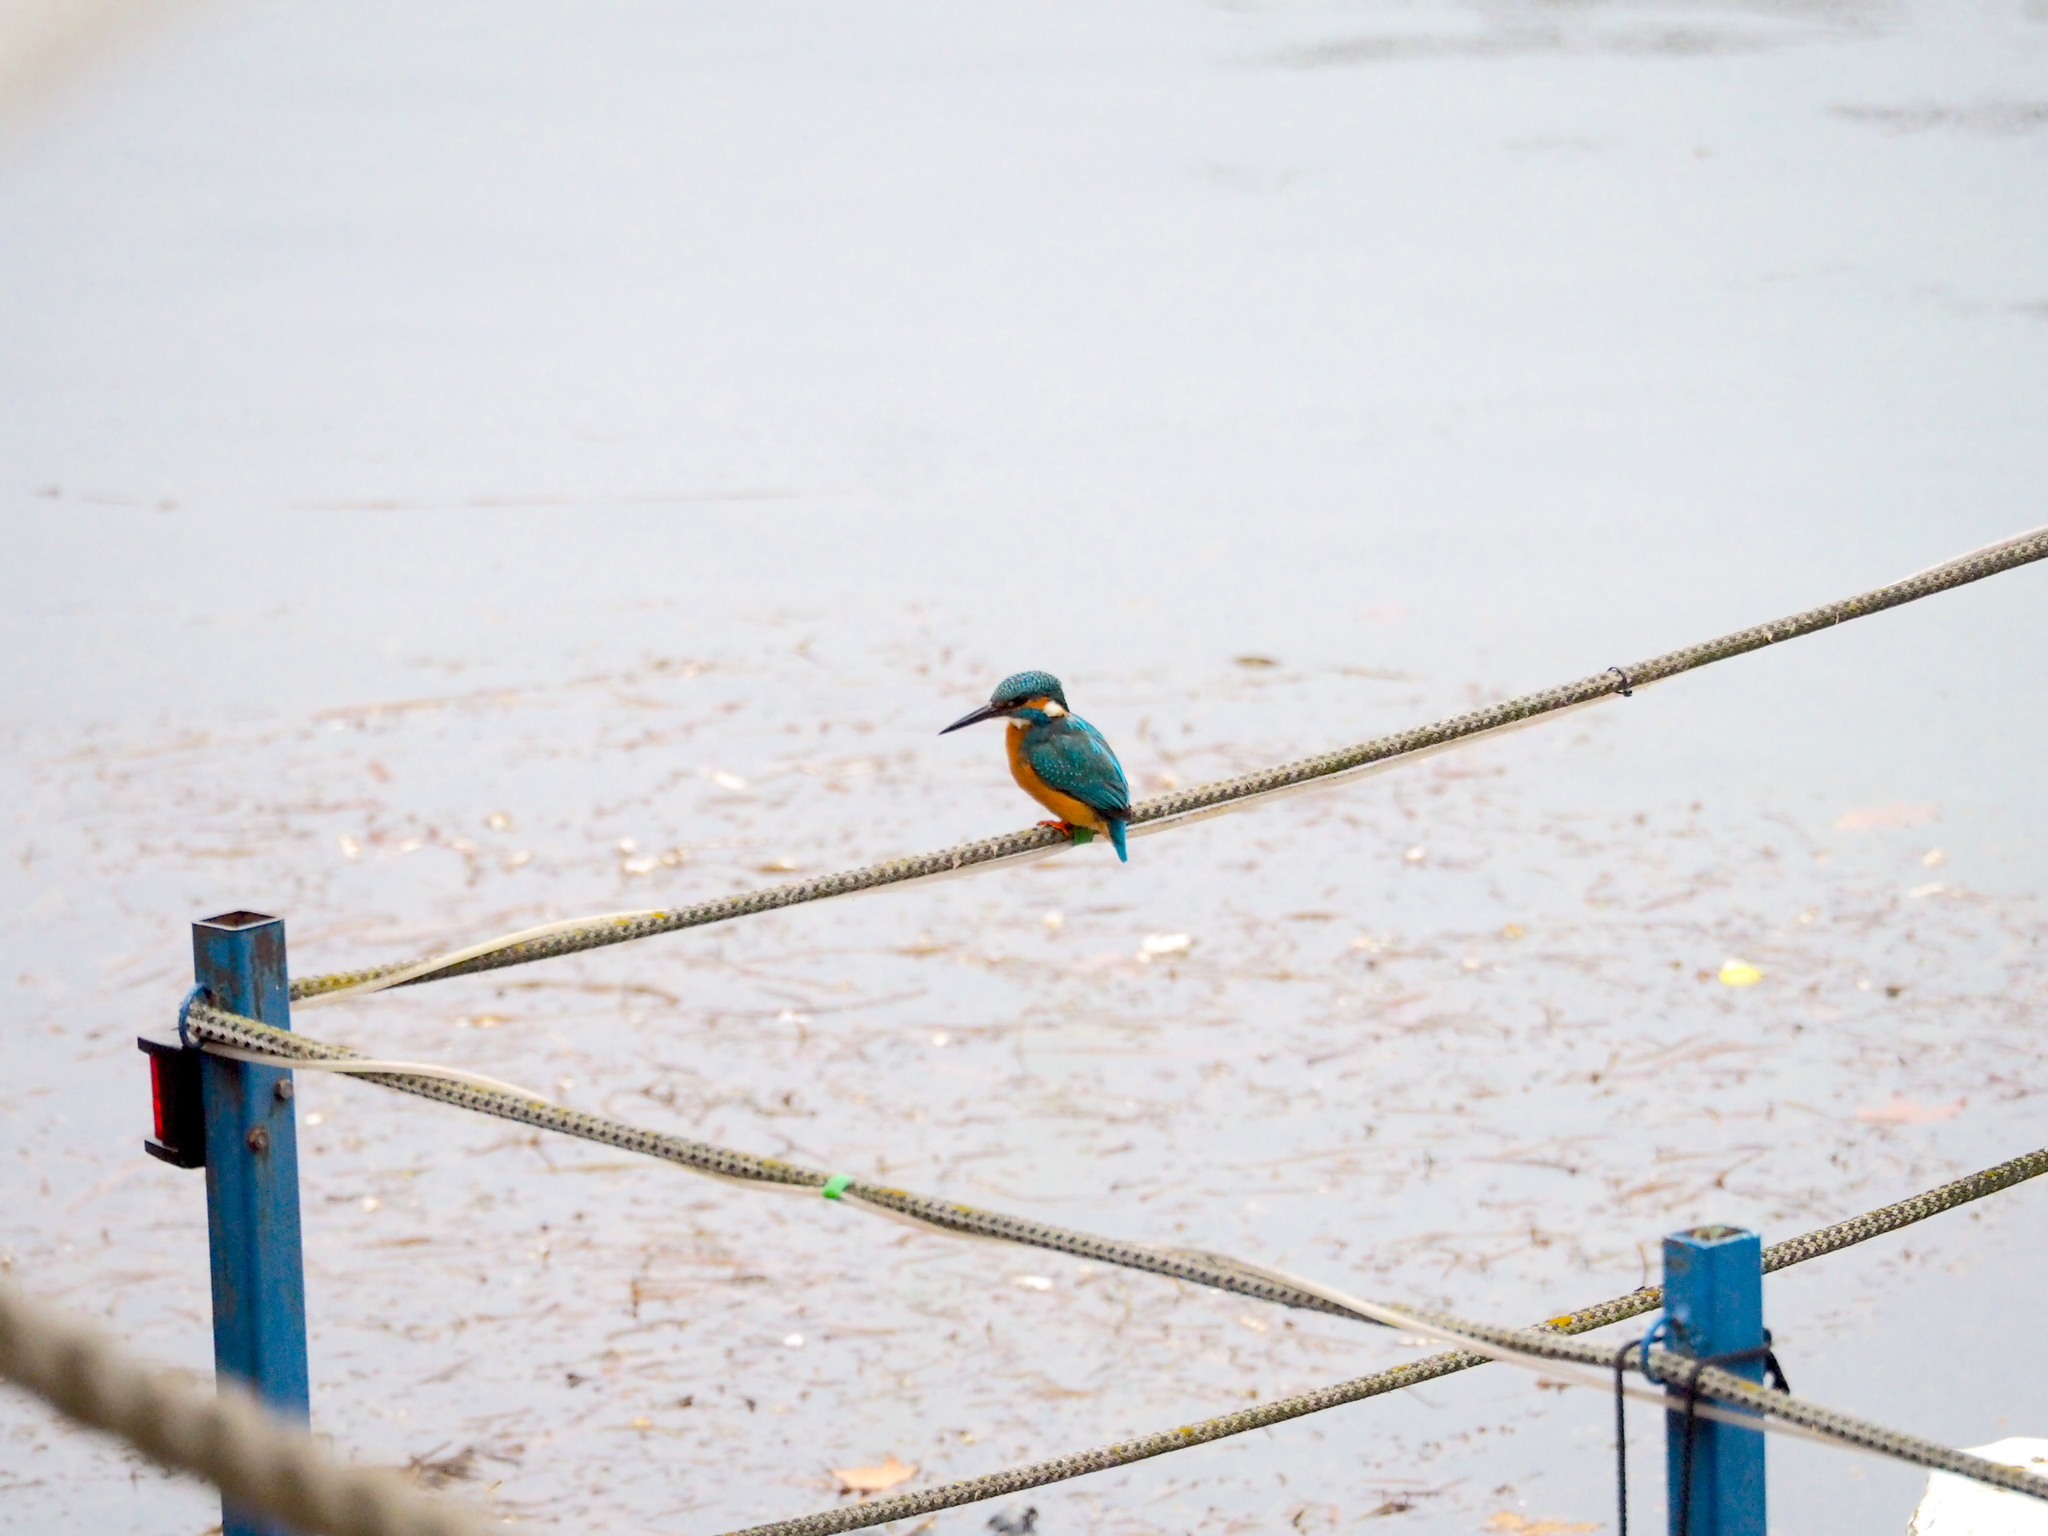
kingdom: Animalia
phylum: Chordata
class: Aves
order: Coraciiformes
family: Alcedinidae
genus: Alcedo
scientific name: Alcedo atthis
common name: Common kingfisher
